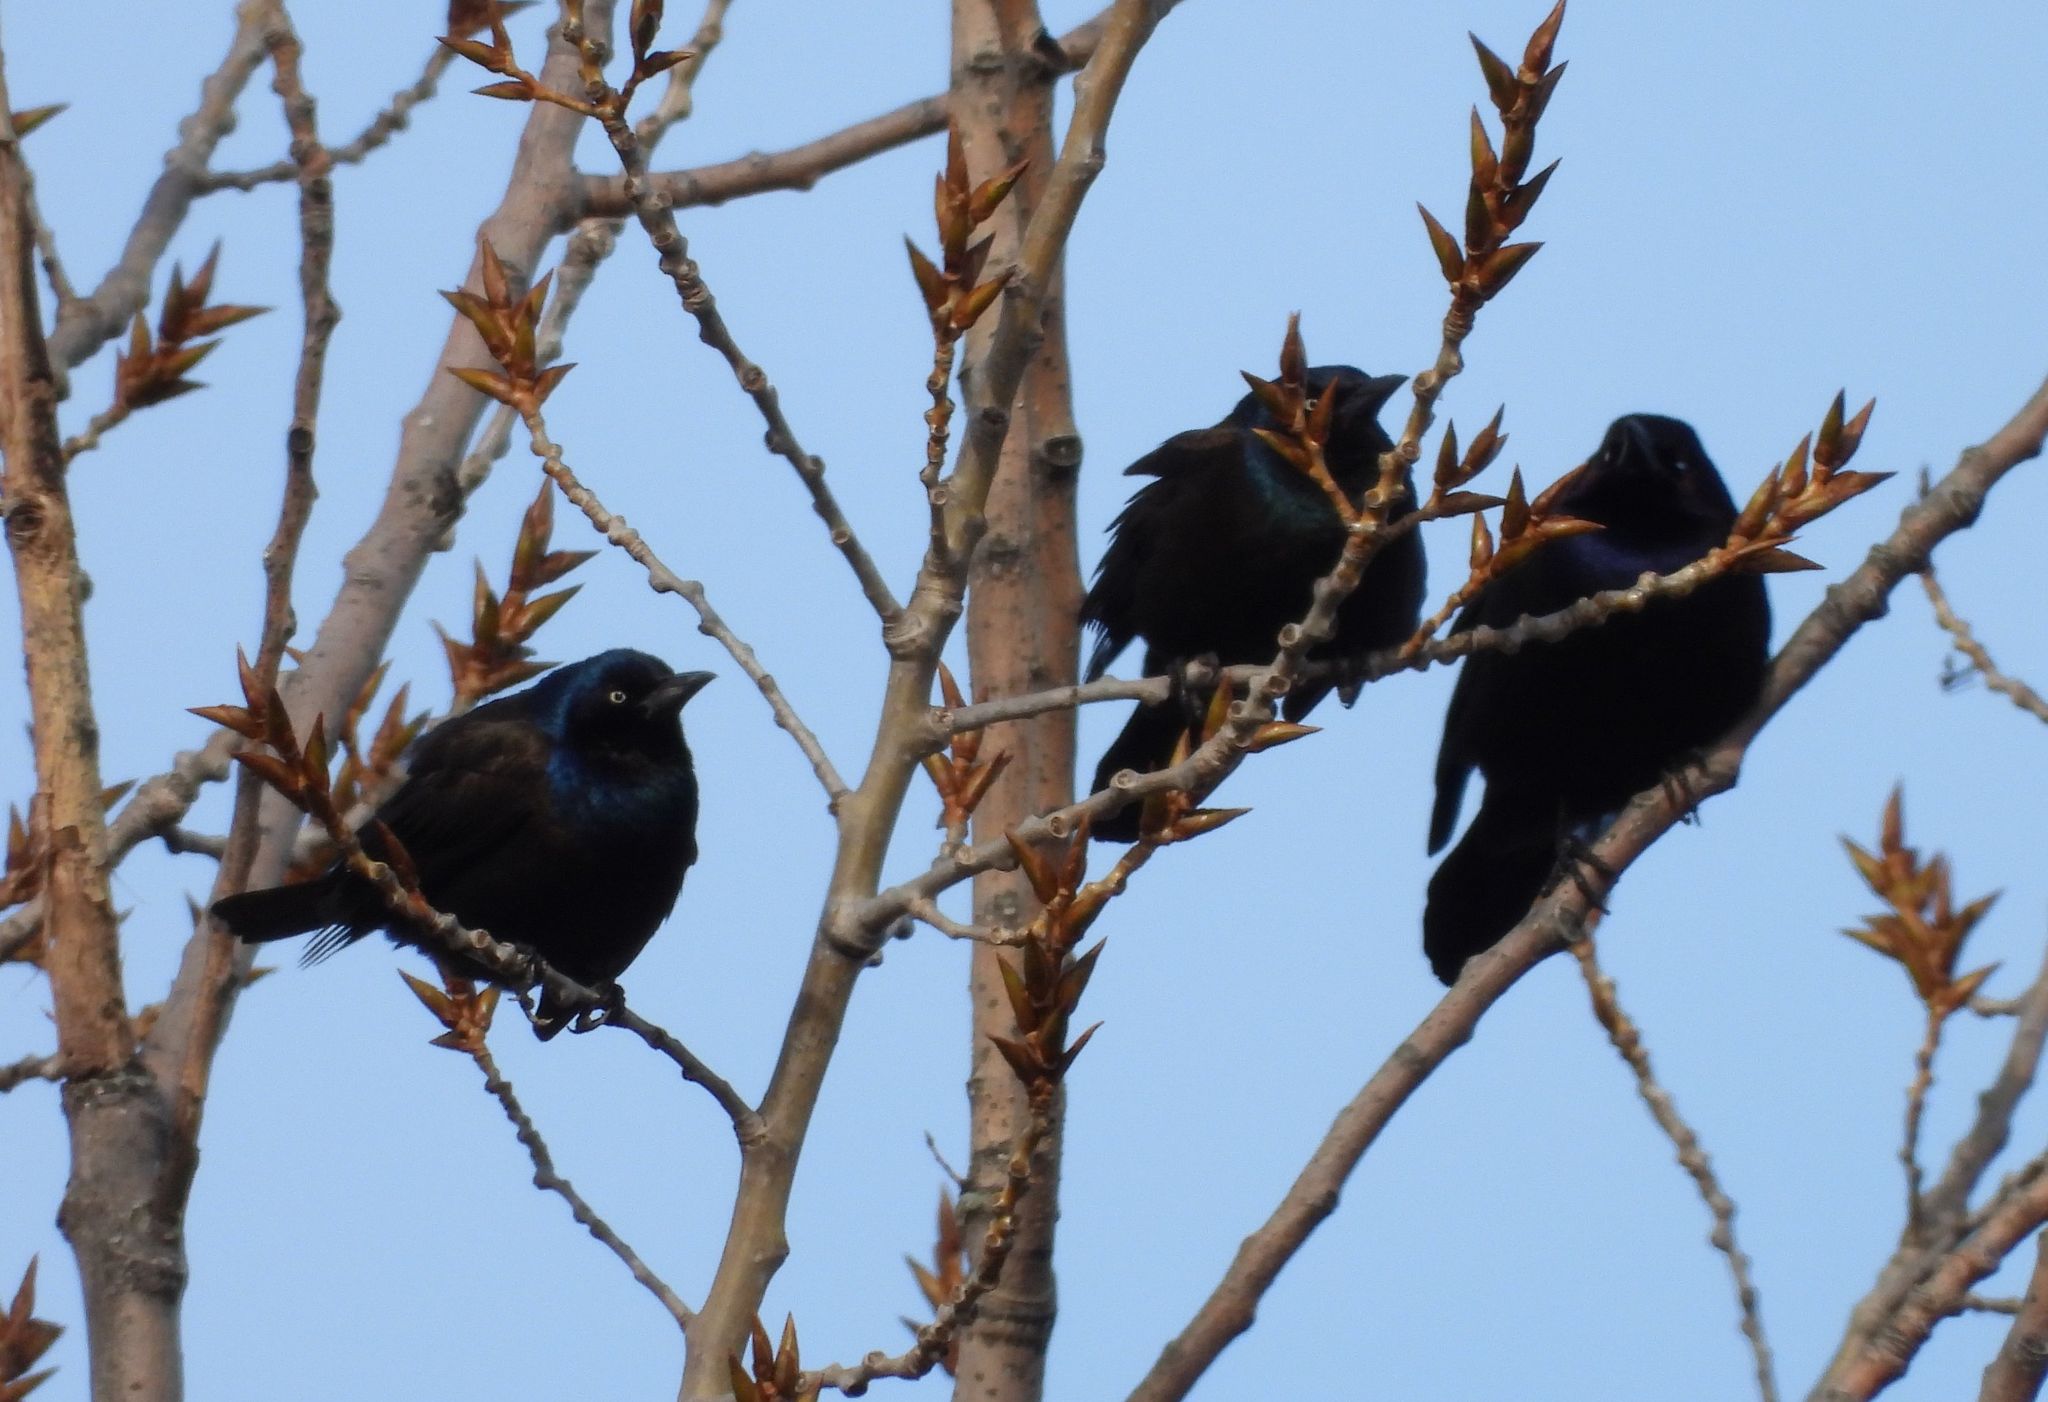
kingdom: Animalia
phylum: Chordata
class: Aves
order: Passeriformes
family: Icteridae
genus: Quiscalus
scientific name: Quiscalus quiscula
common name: Common grackle
